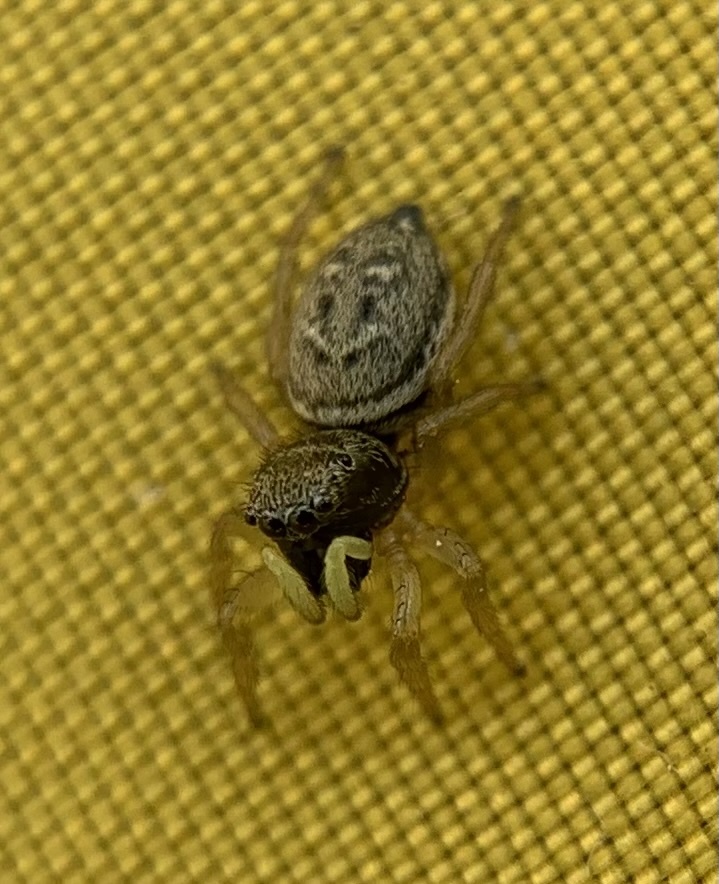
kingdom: Animalia
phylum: Arthropoda
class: Arachnida
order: Araneae
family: Salticidae
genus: Heliophanus
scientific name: Heliophanus flavipes
